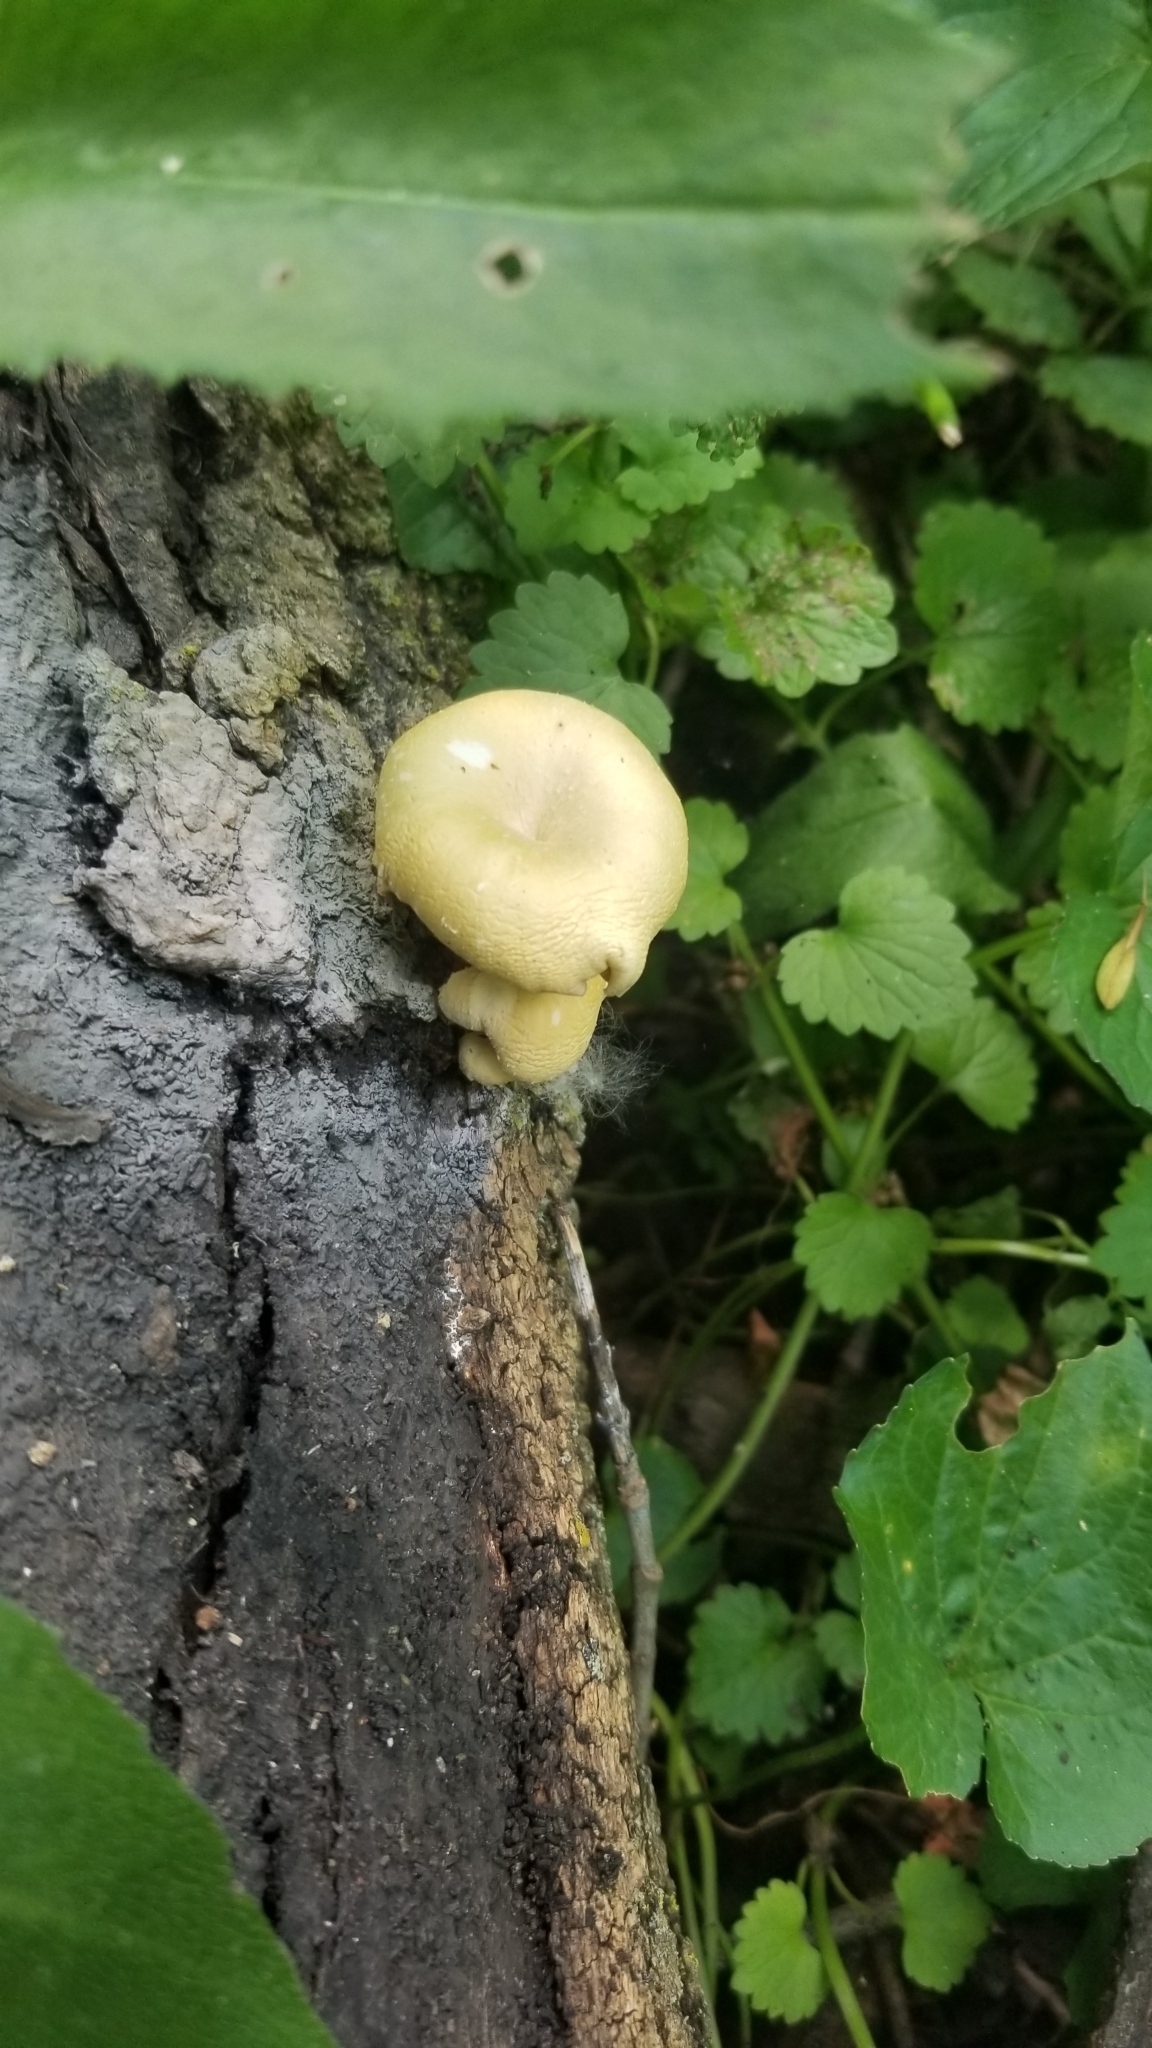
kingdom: Fungi
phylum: Basidiomycota
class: Agaricomycetes
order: Agaricales
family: Pleurotaceae
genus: Pleurotus
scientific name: Pleurotus citrinopileatus
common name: Golden oyster mushroom
